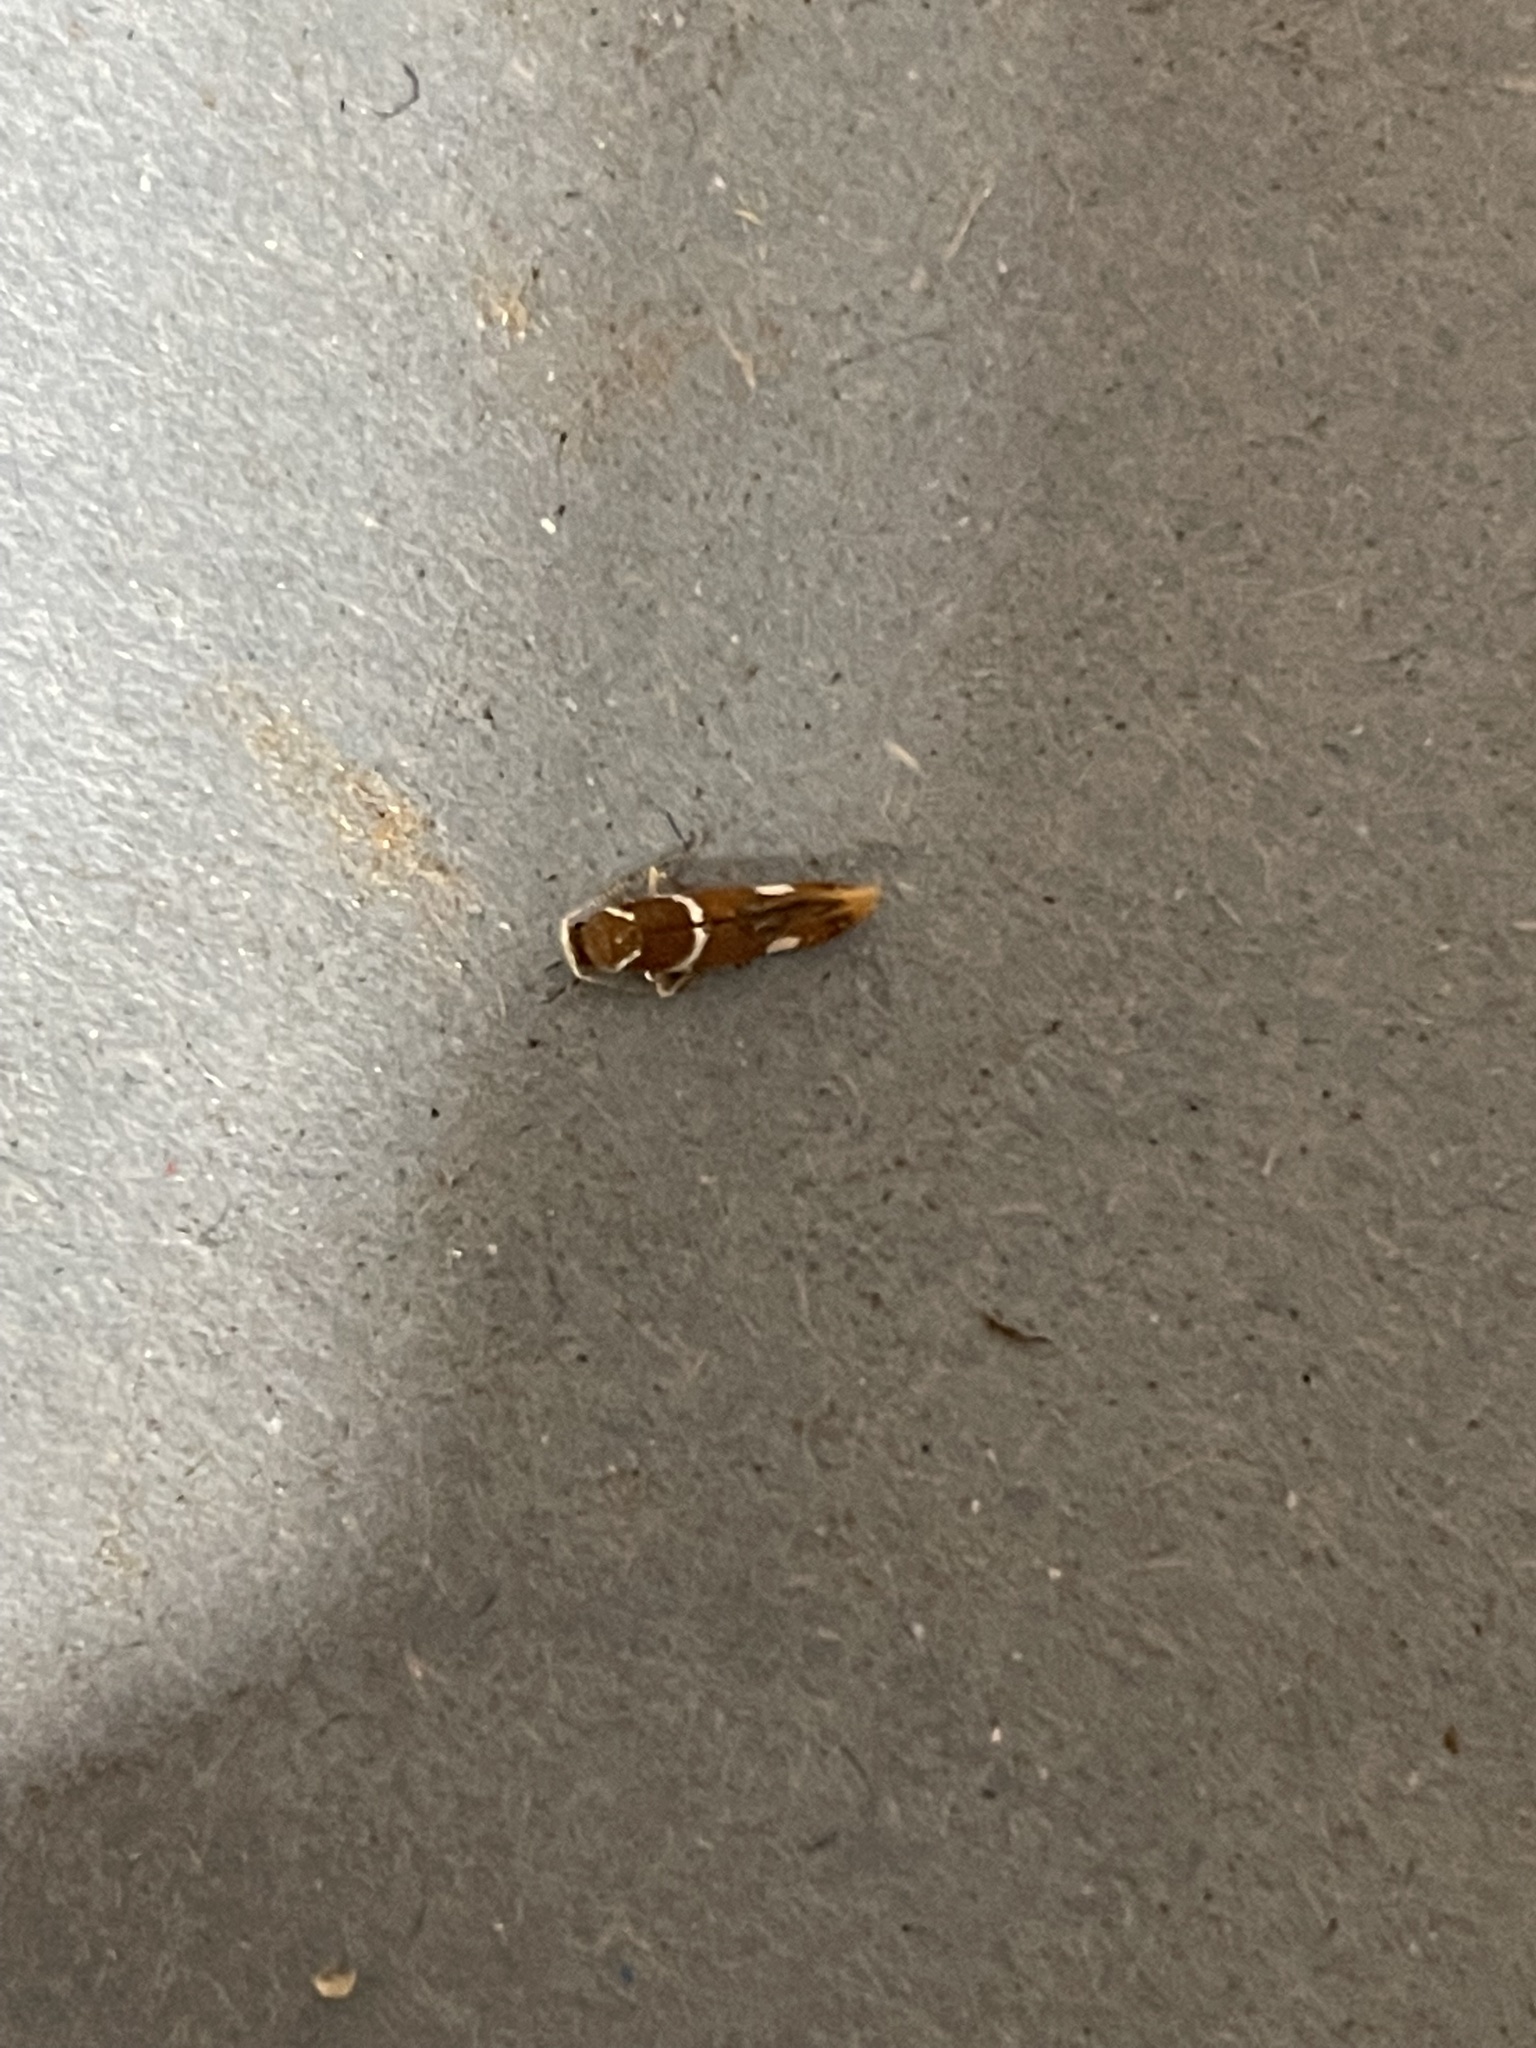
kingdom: Animalia
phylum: Arthropoda
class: Insecta
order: Lepidoptera
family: Oecophoridae
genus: Promalactis
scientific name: Promalactis suzukiella
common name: Moth
